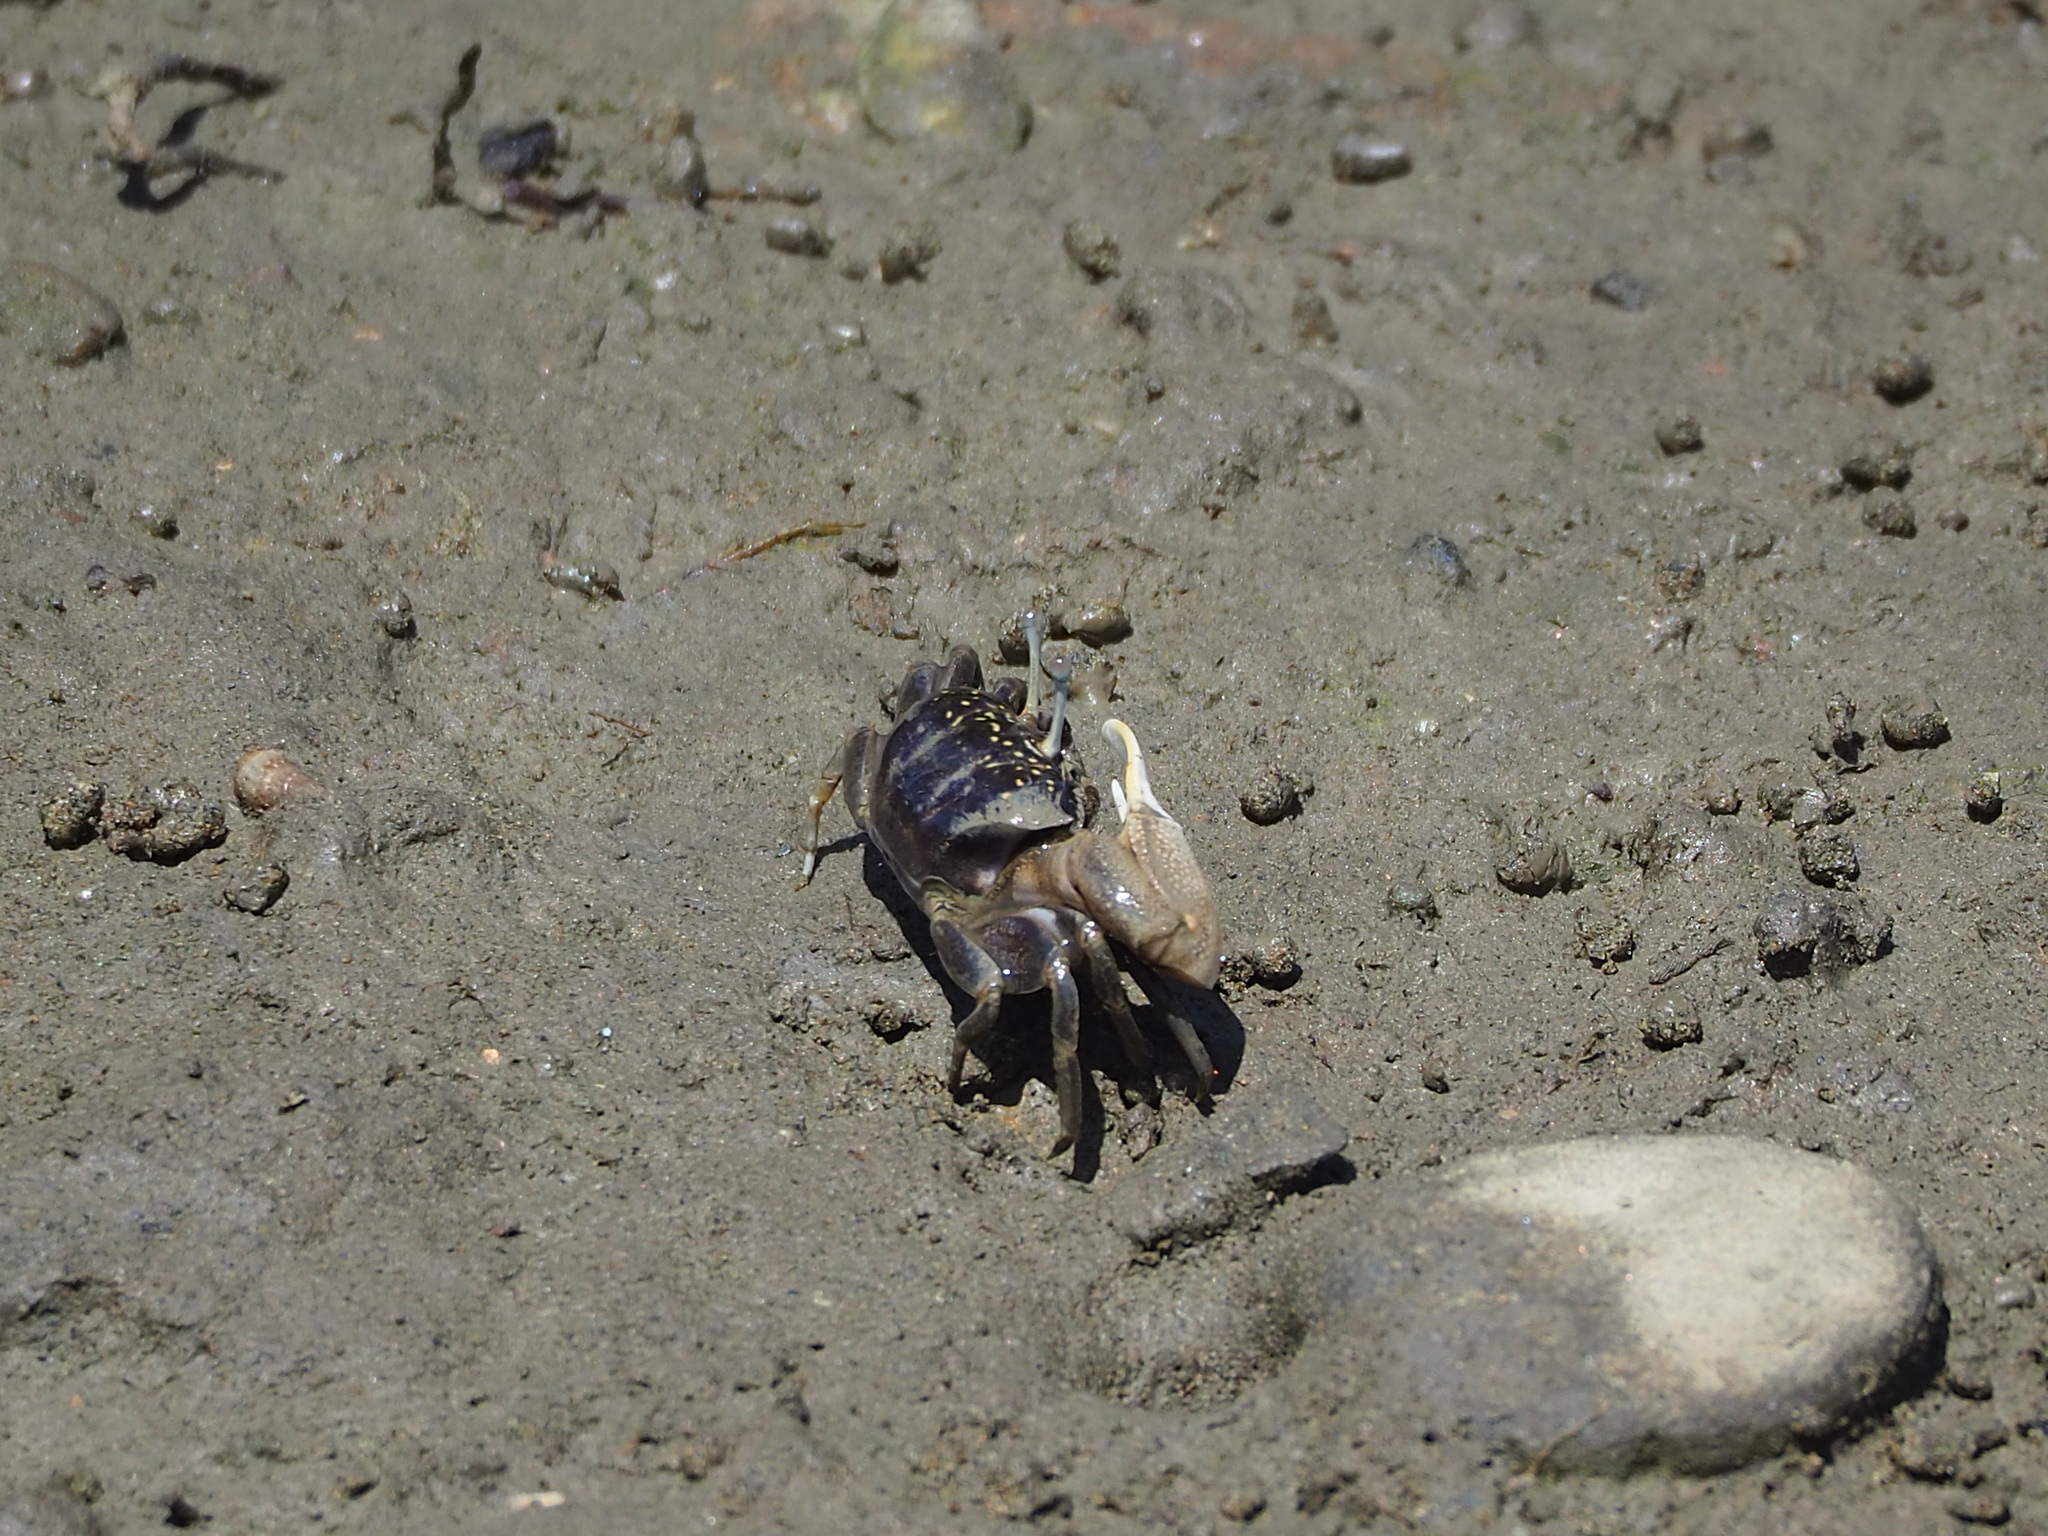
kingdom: Animalia
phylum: Arthropoda
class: Malacostraca
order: Decapoda
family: Ocypodidae
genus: Xeruca
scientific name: Xeruca formosensis
